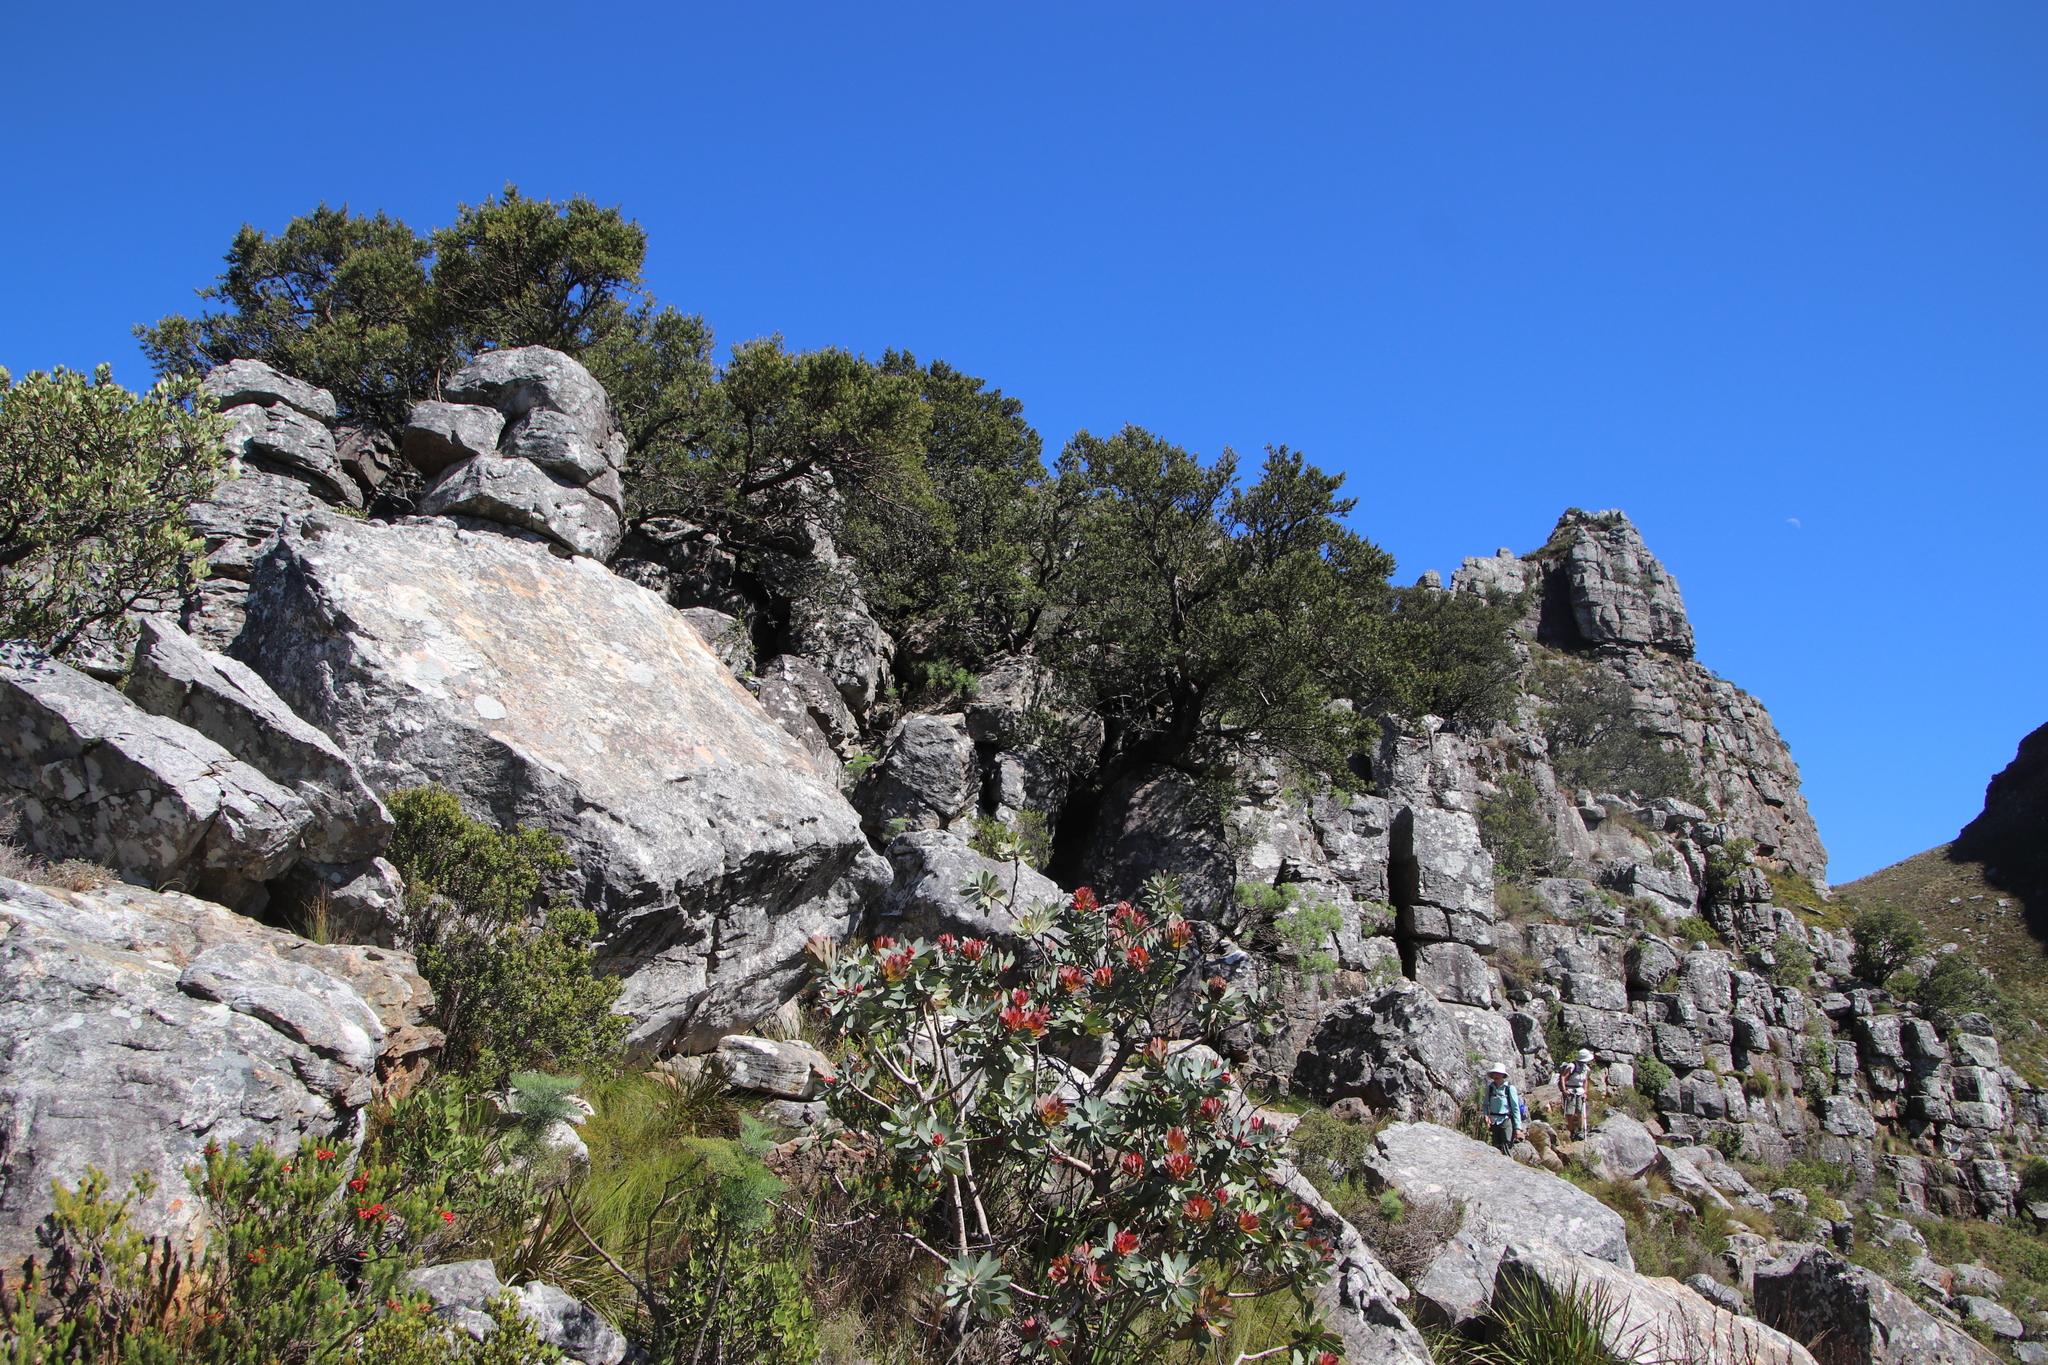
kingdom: Plantae
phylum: Tracheophyta
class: Pinopsida
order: Pinales
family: Podocarpaceae
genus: Podocarpus
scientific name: Podocarpus latifolius
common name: True yellowwood
